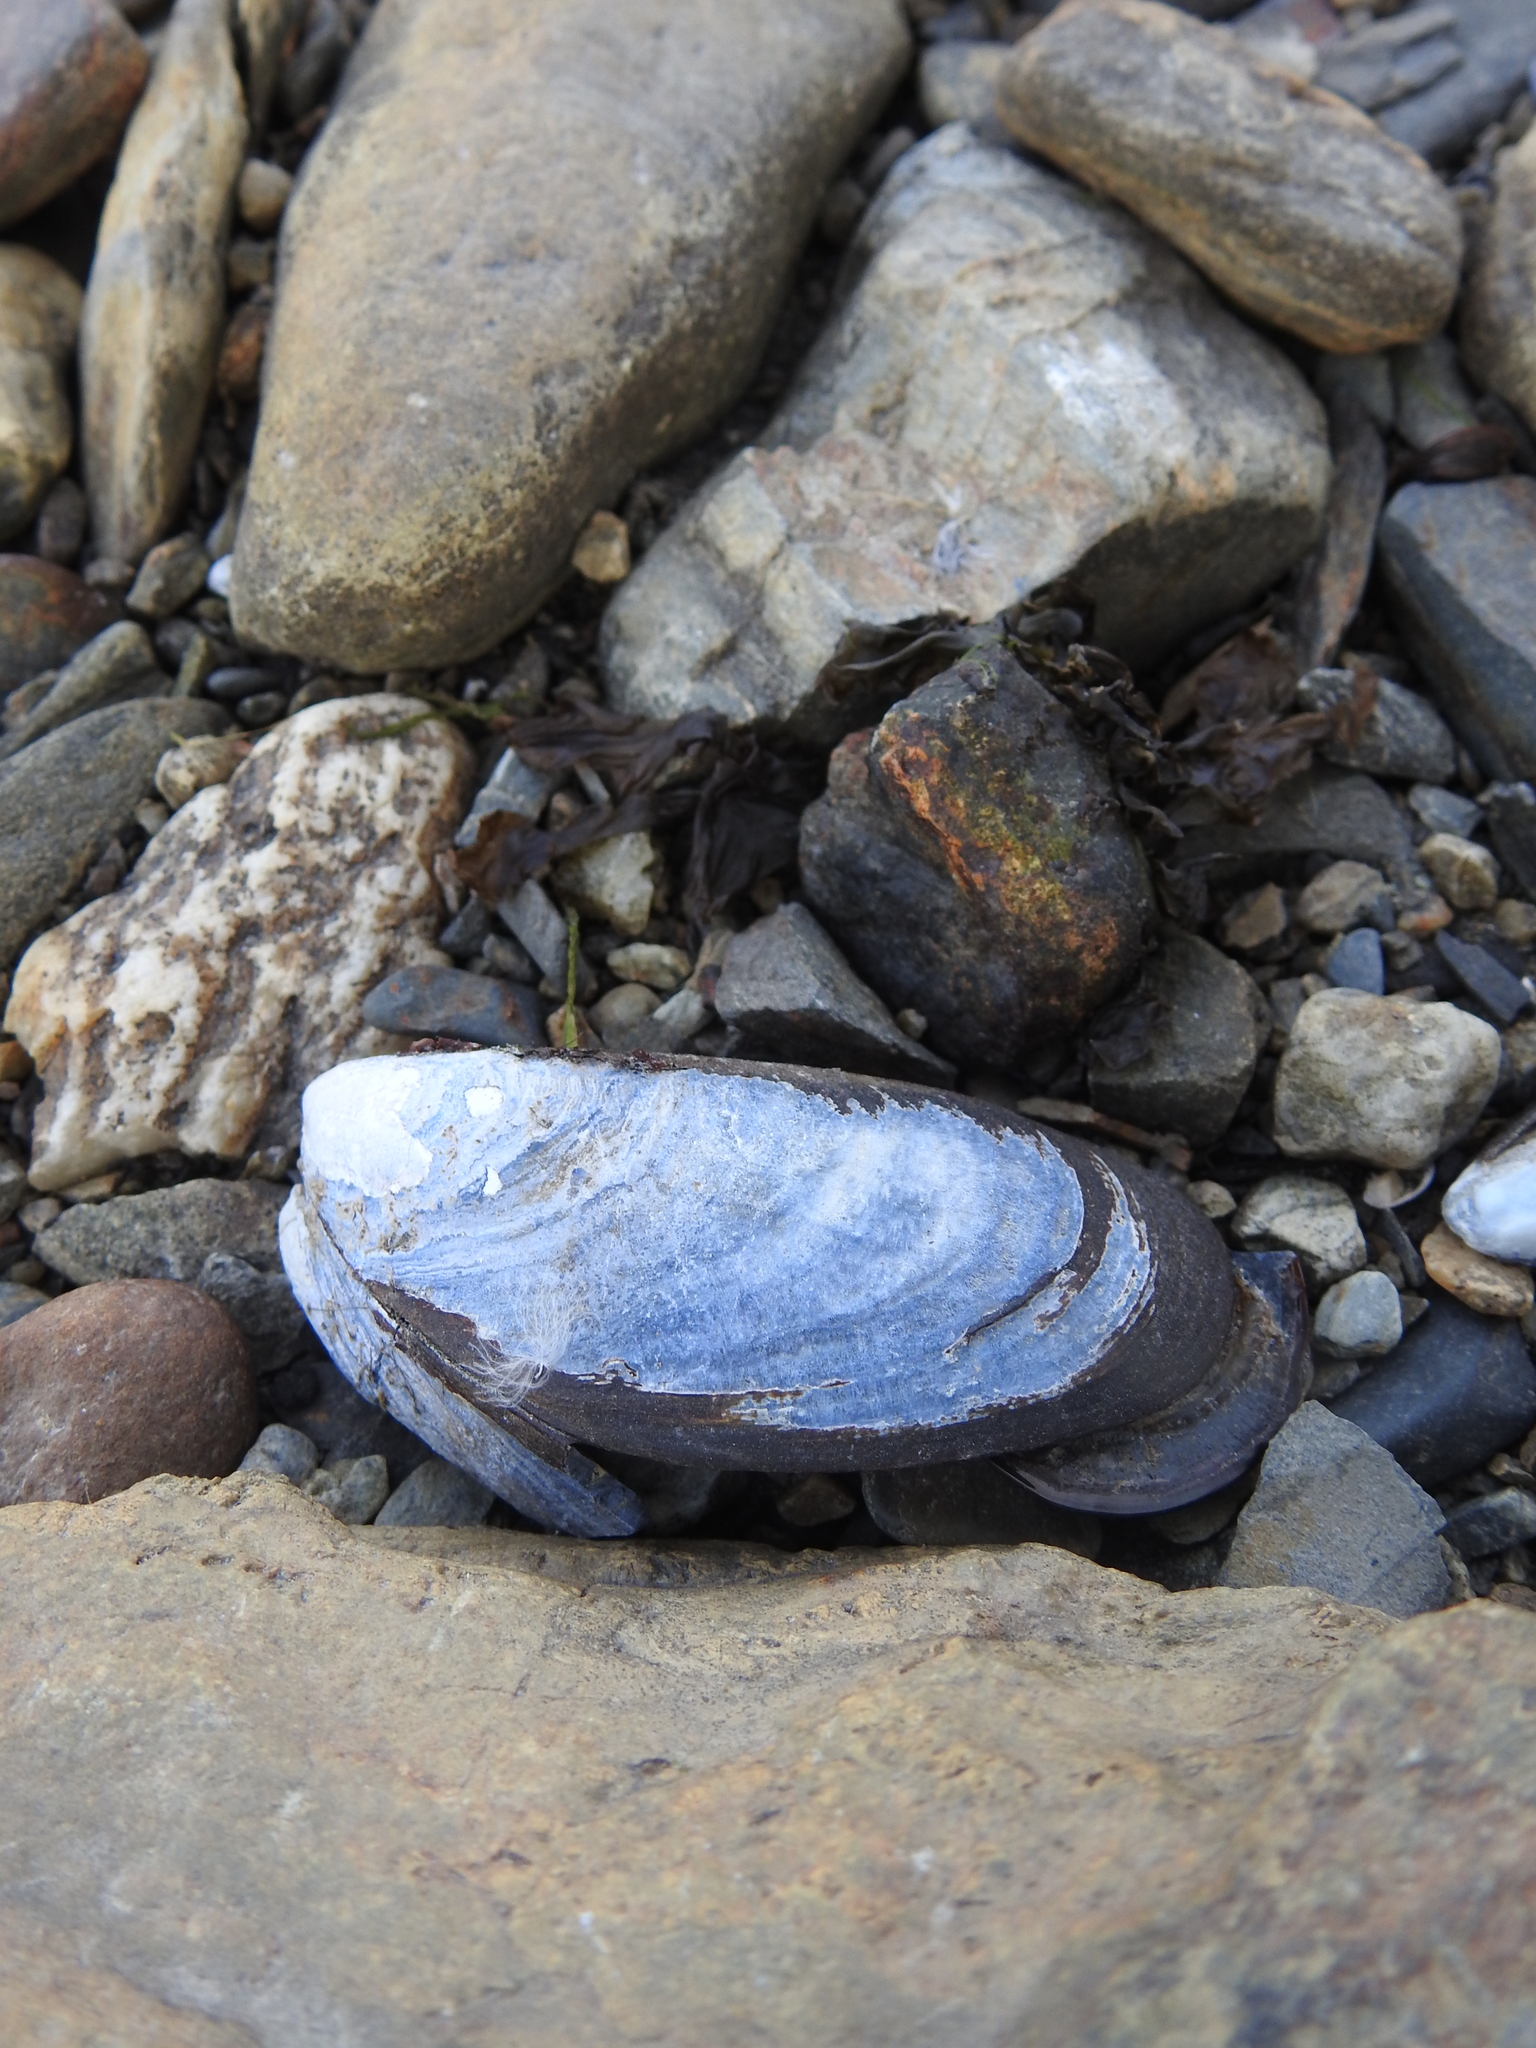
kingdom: Animalia
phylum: Mollusca
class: Bivalvia
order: Mytilida
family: Mytilidae
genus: Mytilus
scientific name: Mytilus chilensis
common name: Chilean mussel
